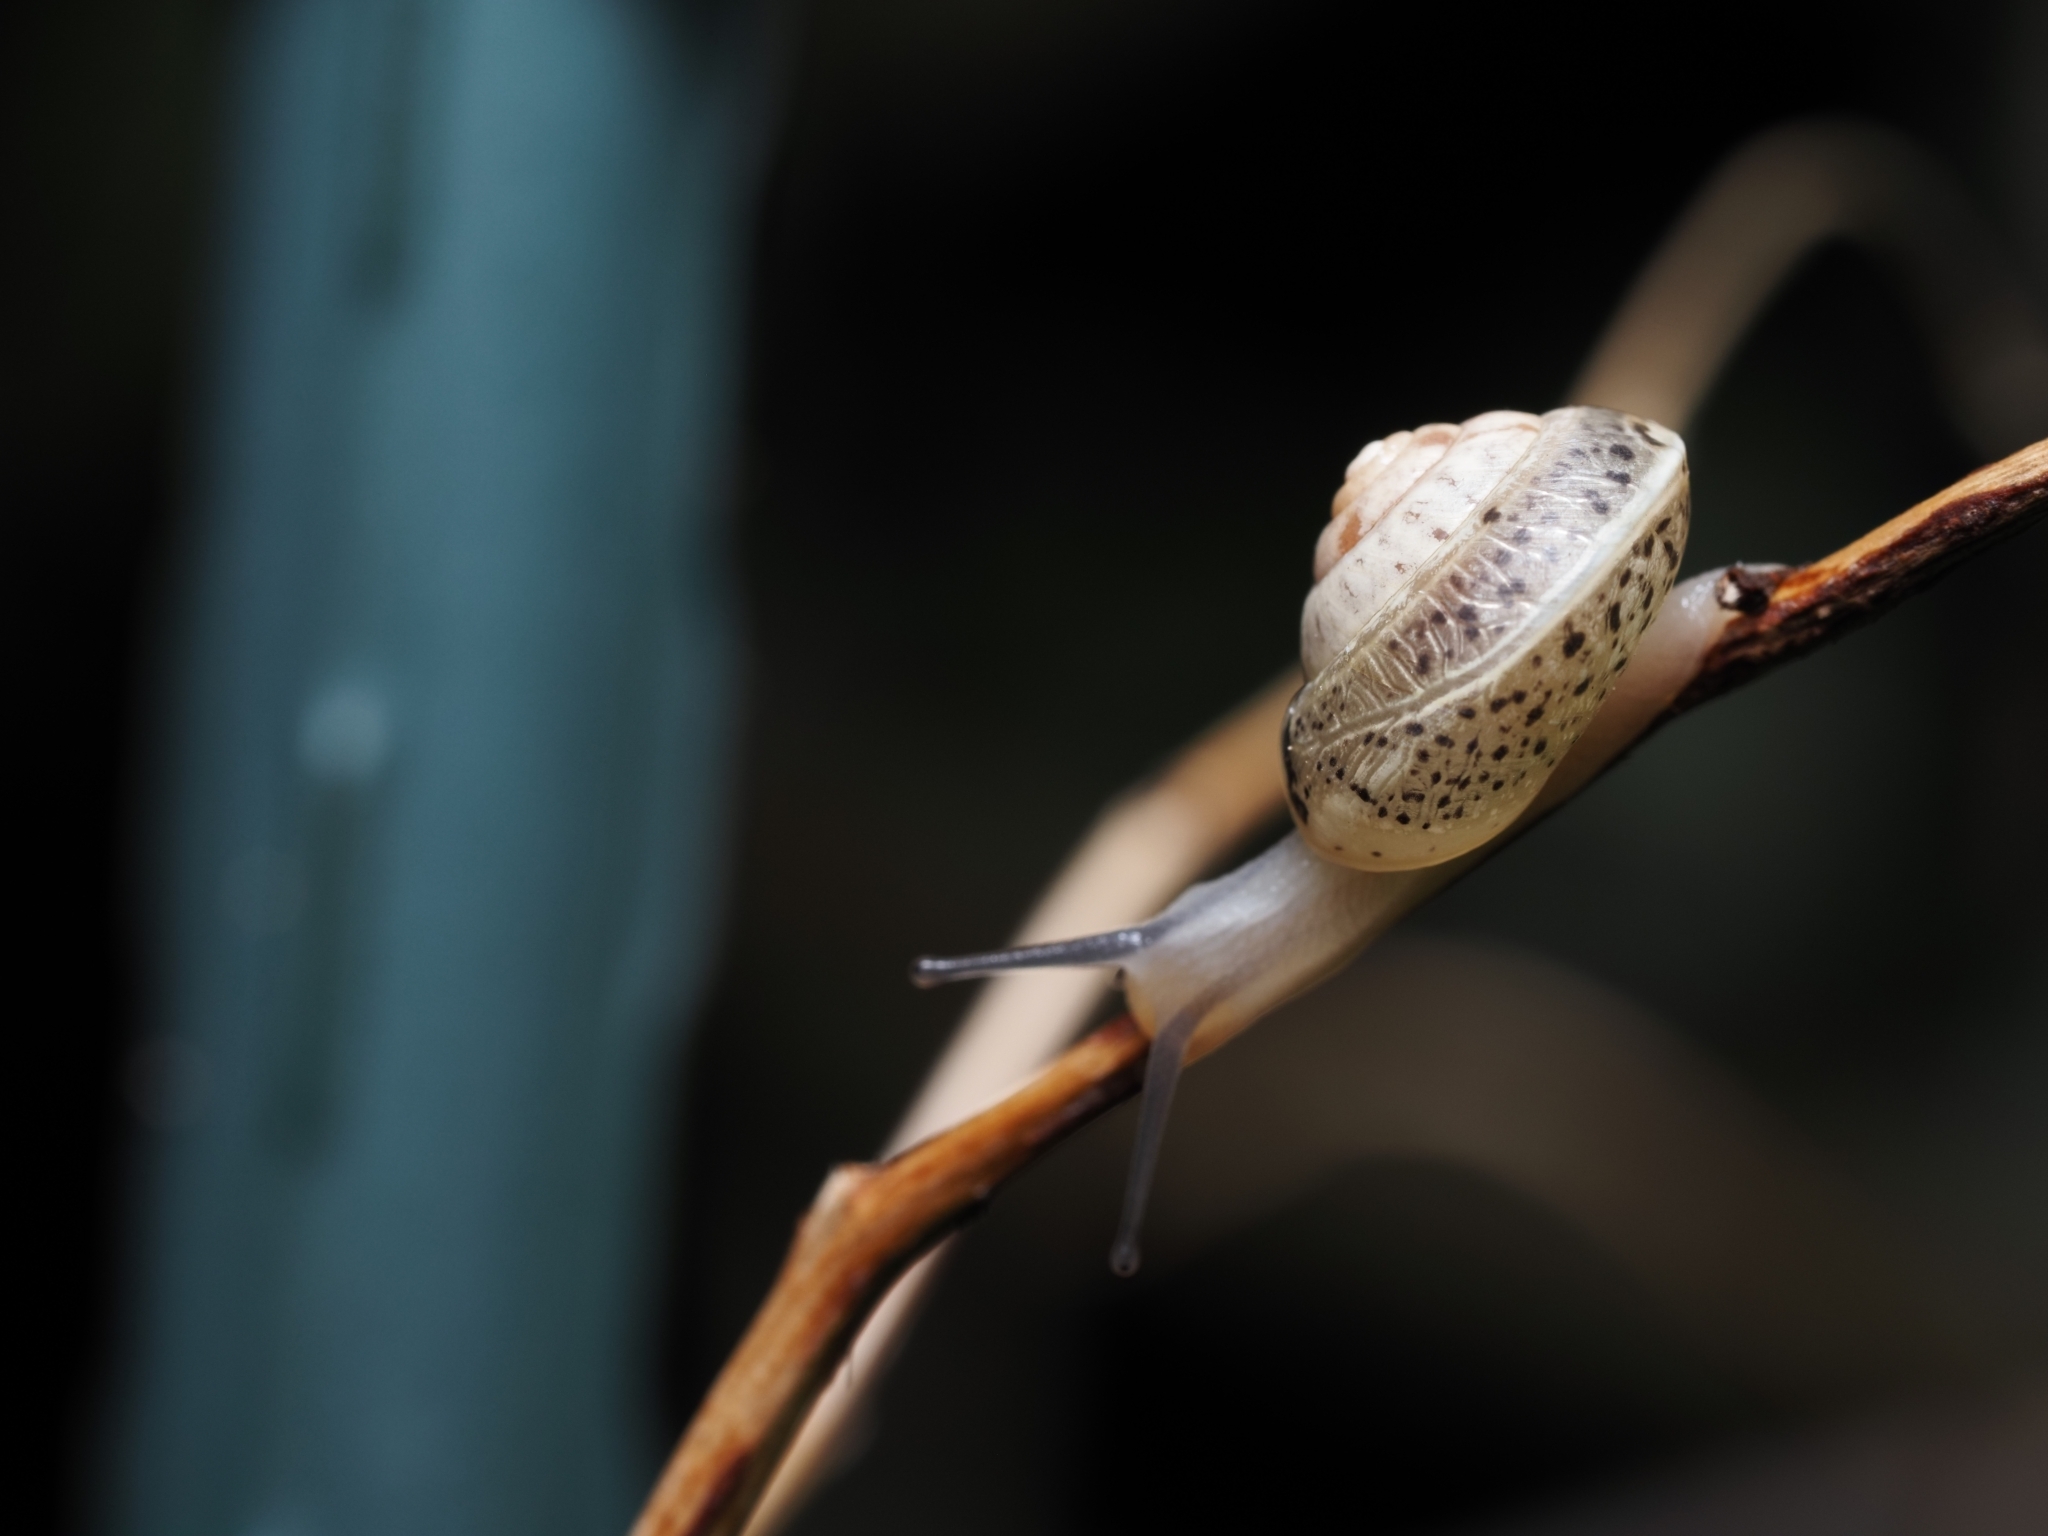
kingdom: Animalia
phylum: Mollusca
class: Gastropoda
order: Stylommatophora
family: Hygromiidae
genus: Hygromia
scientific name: Hygromia cinctella
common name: Girdled snail
